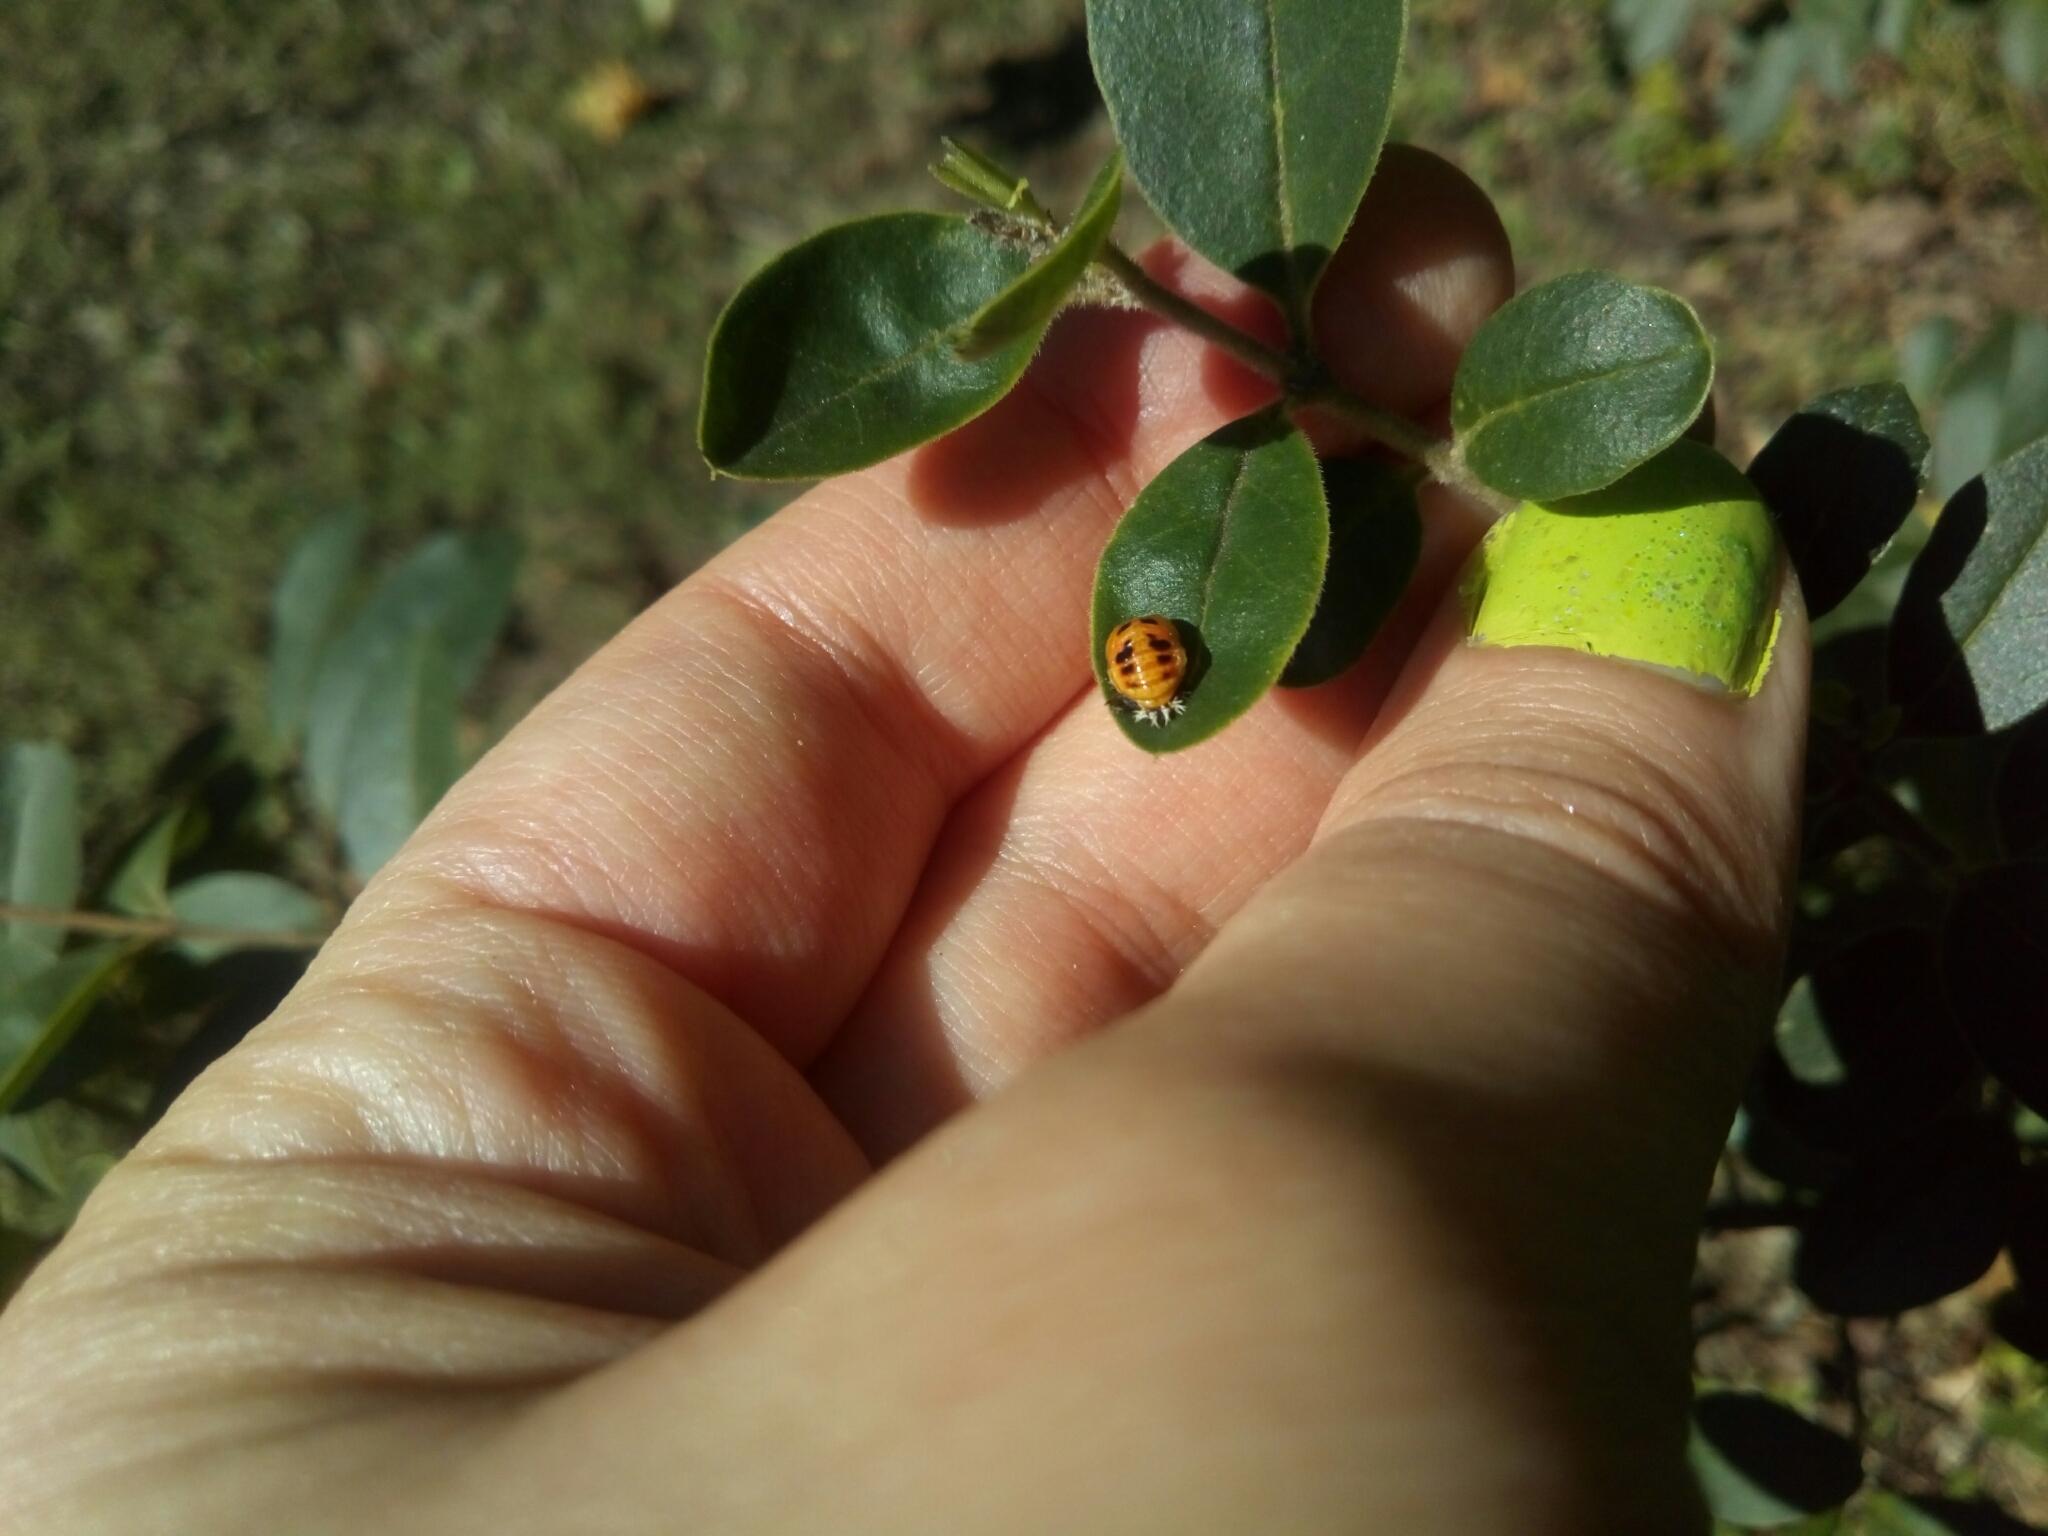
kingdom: Animalia
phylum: Arthropoda
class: Insecta
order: Coleoptera
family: Coccinellidae
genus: Harmonia
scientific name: Harmonia axyridis
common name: Harlequin ladybird
